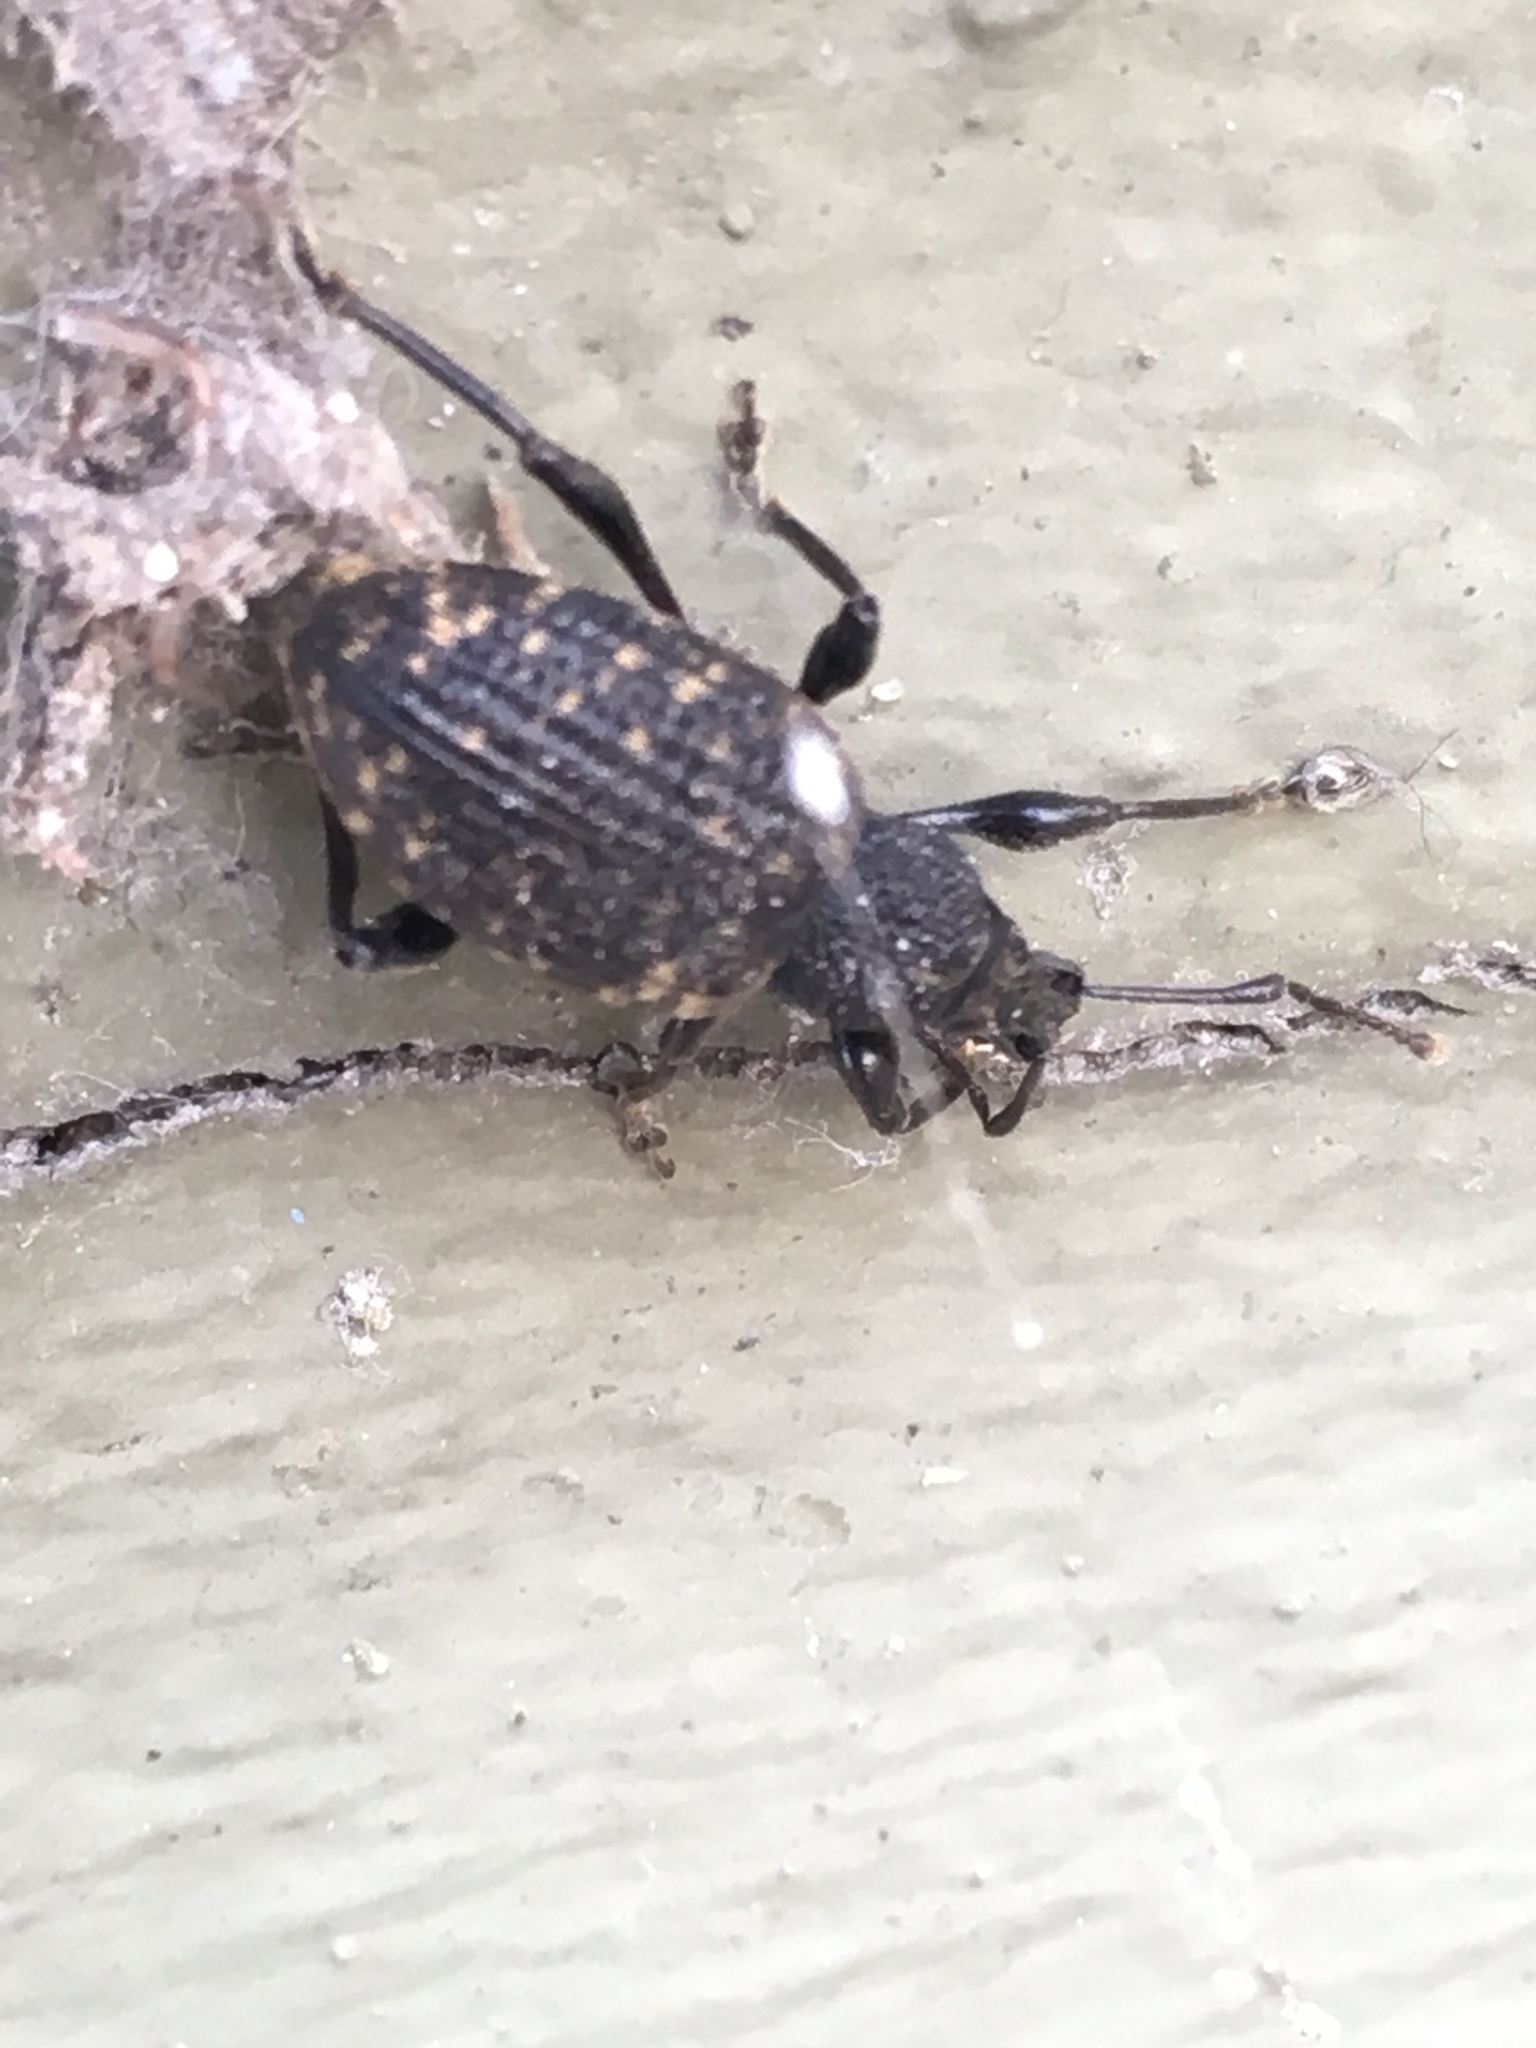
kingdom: Animalia
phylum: Arthropoda
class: Insecta
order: Coleoptera
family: Curculionidae
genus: Otiorhynchus
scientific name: Otiorhynchus sulcatus
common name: Black vine weevil
